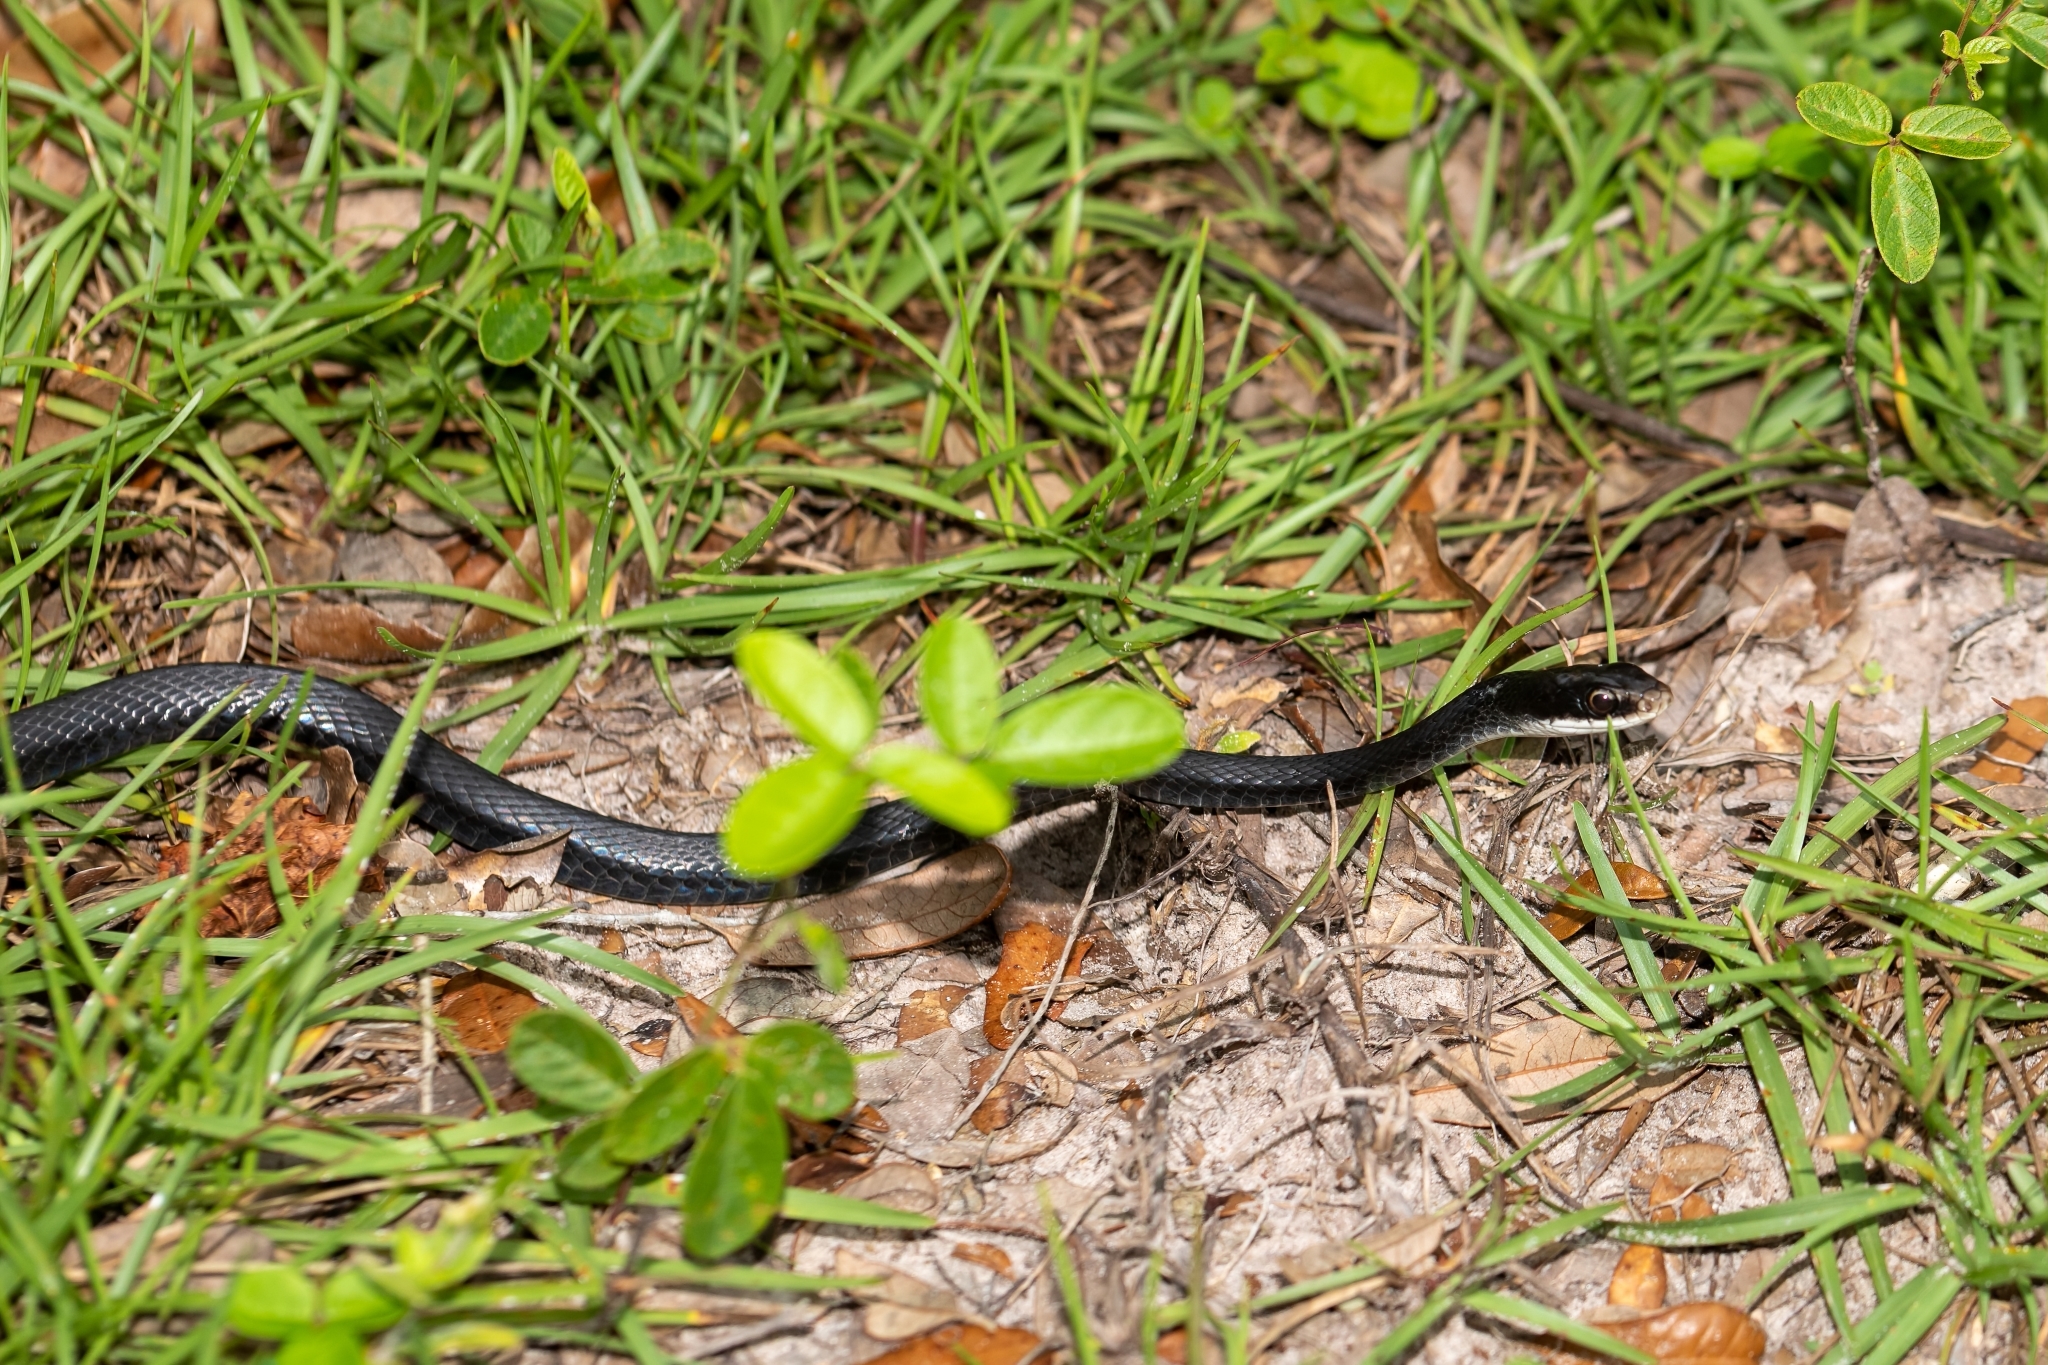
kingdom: Animalia
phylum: Chordata
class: Squamata
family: Colubridae
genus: Coluber
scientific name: Coluber constrictor
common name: Eastern racer
